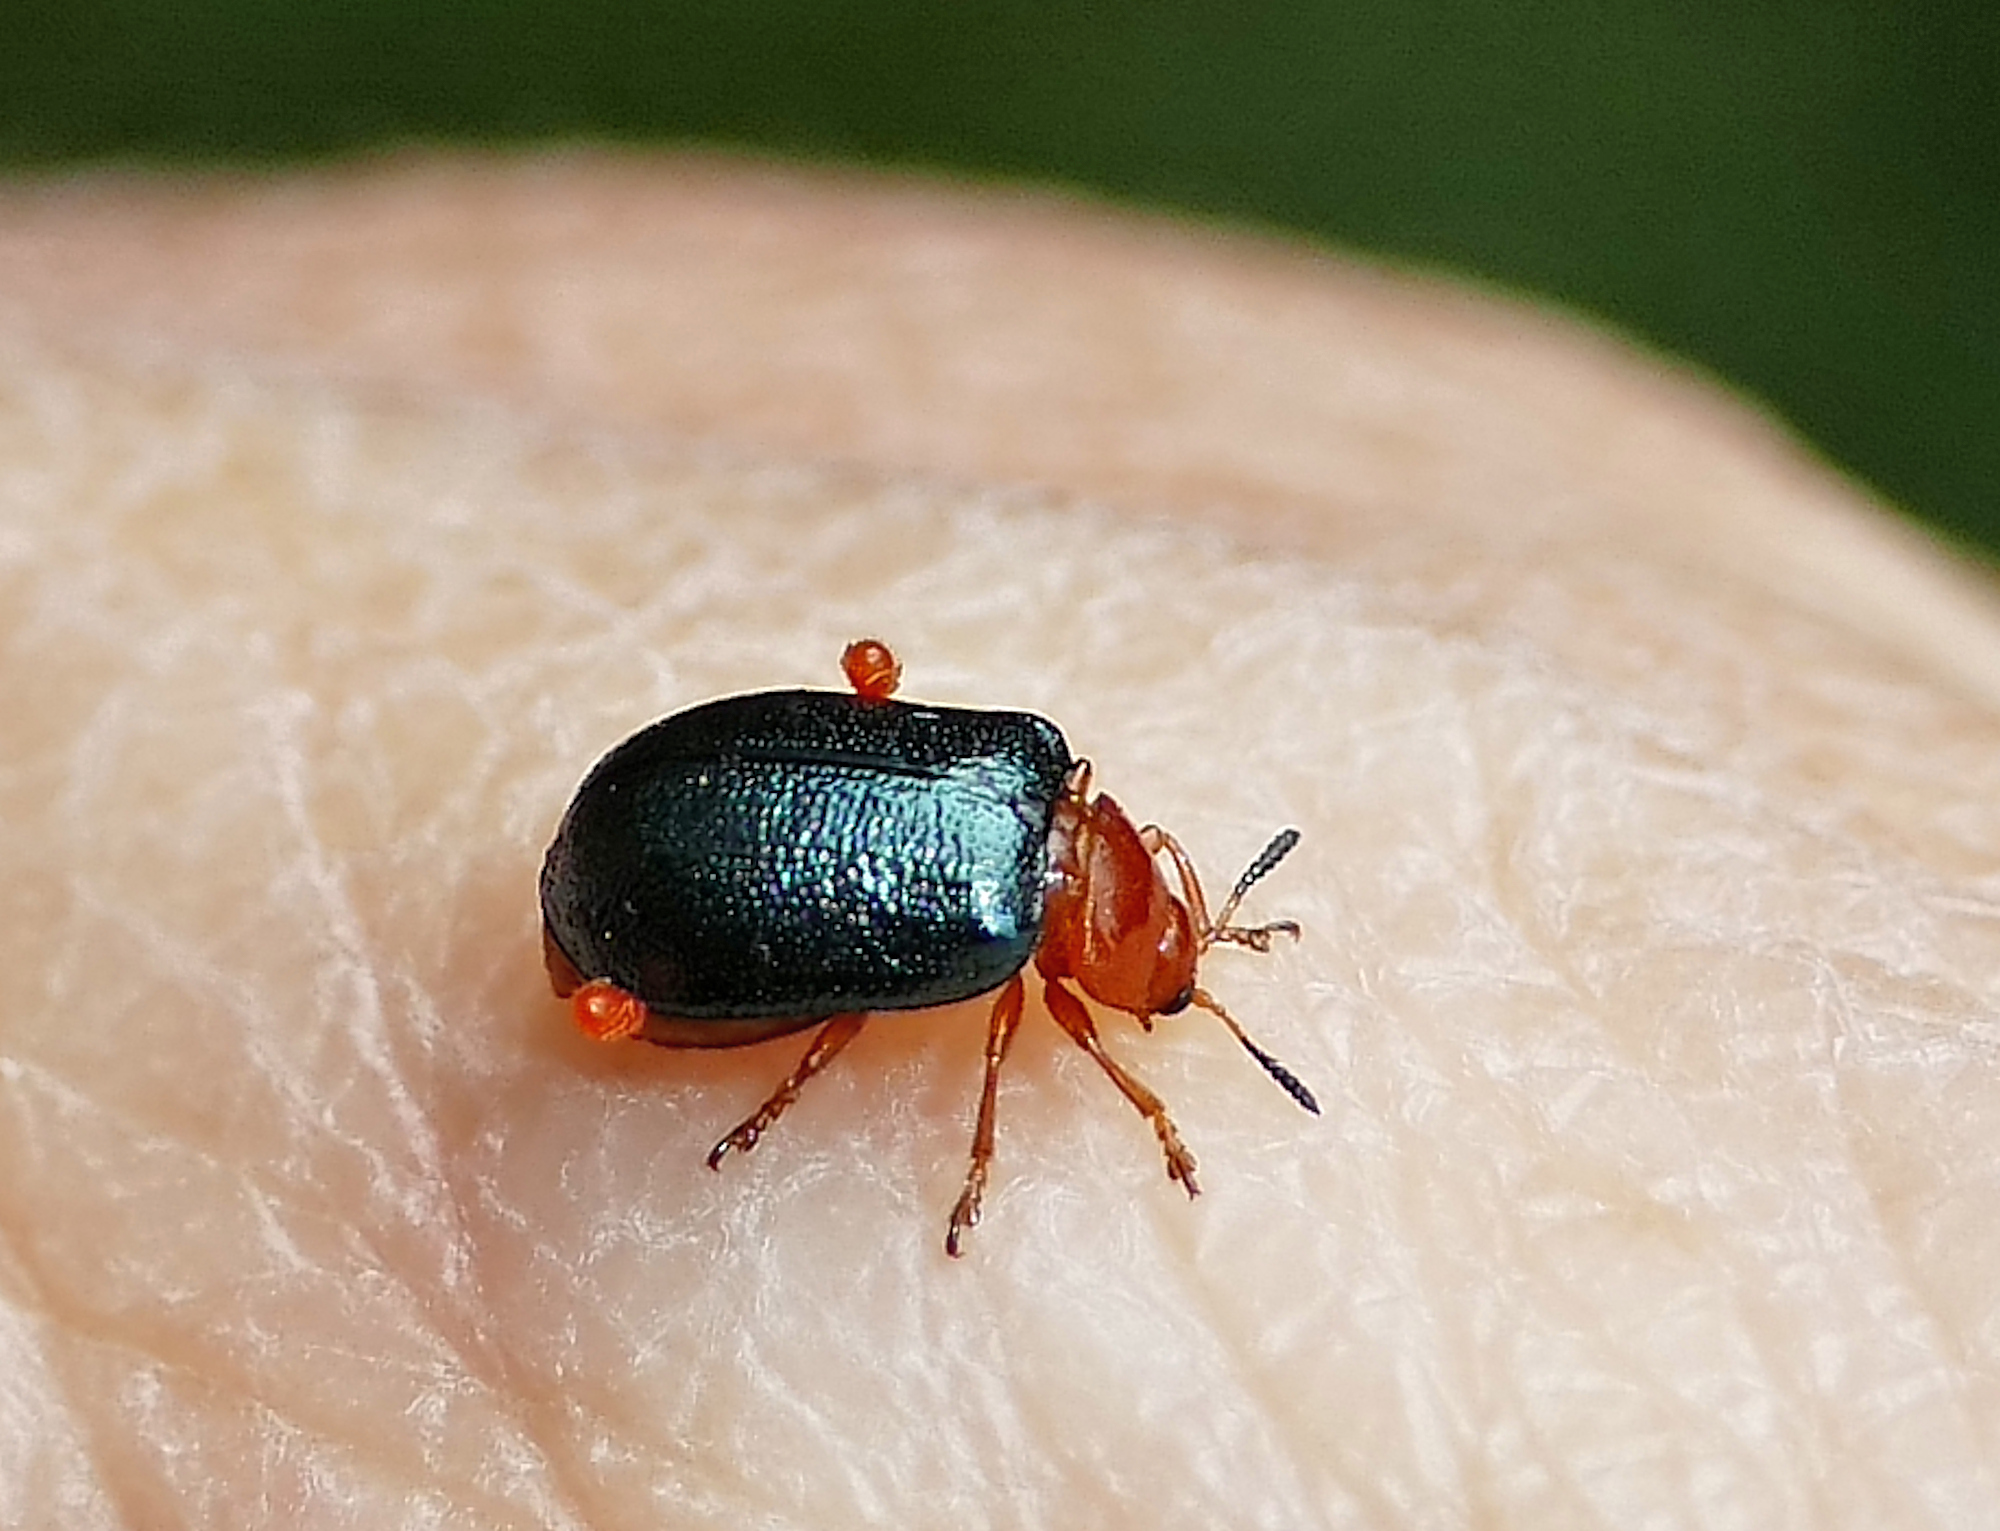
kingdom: Animalia
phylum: Arthropoda
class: Insecta
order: Coleoptera
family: Chrysomelidae
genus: Plagiodera
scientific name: Plagiodera arizonae
